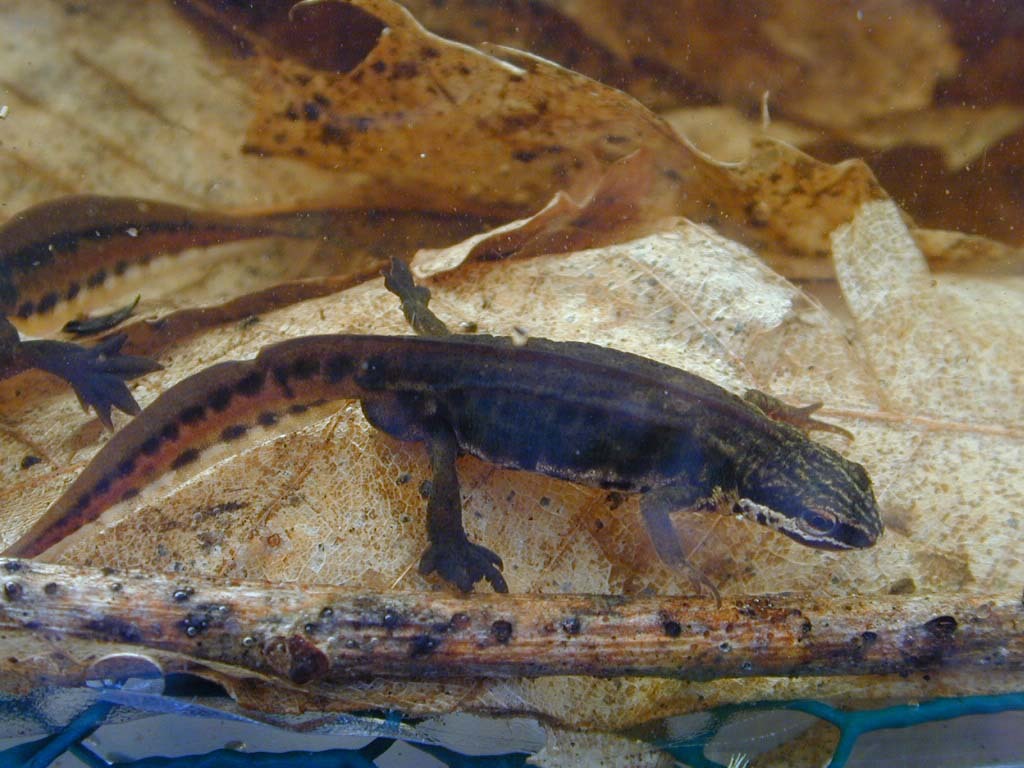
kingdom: Animalia
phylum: Chordata
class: Amphibia
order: Caudata
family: Salamandridae
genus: Lissotriton
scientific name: Lissotriton helveticus
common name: Palmate newt
